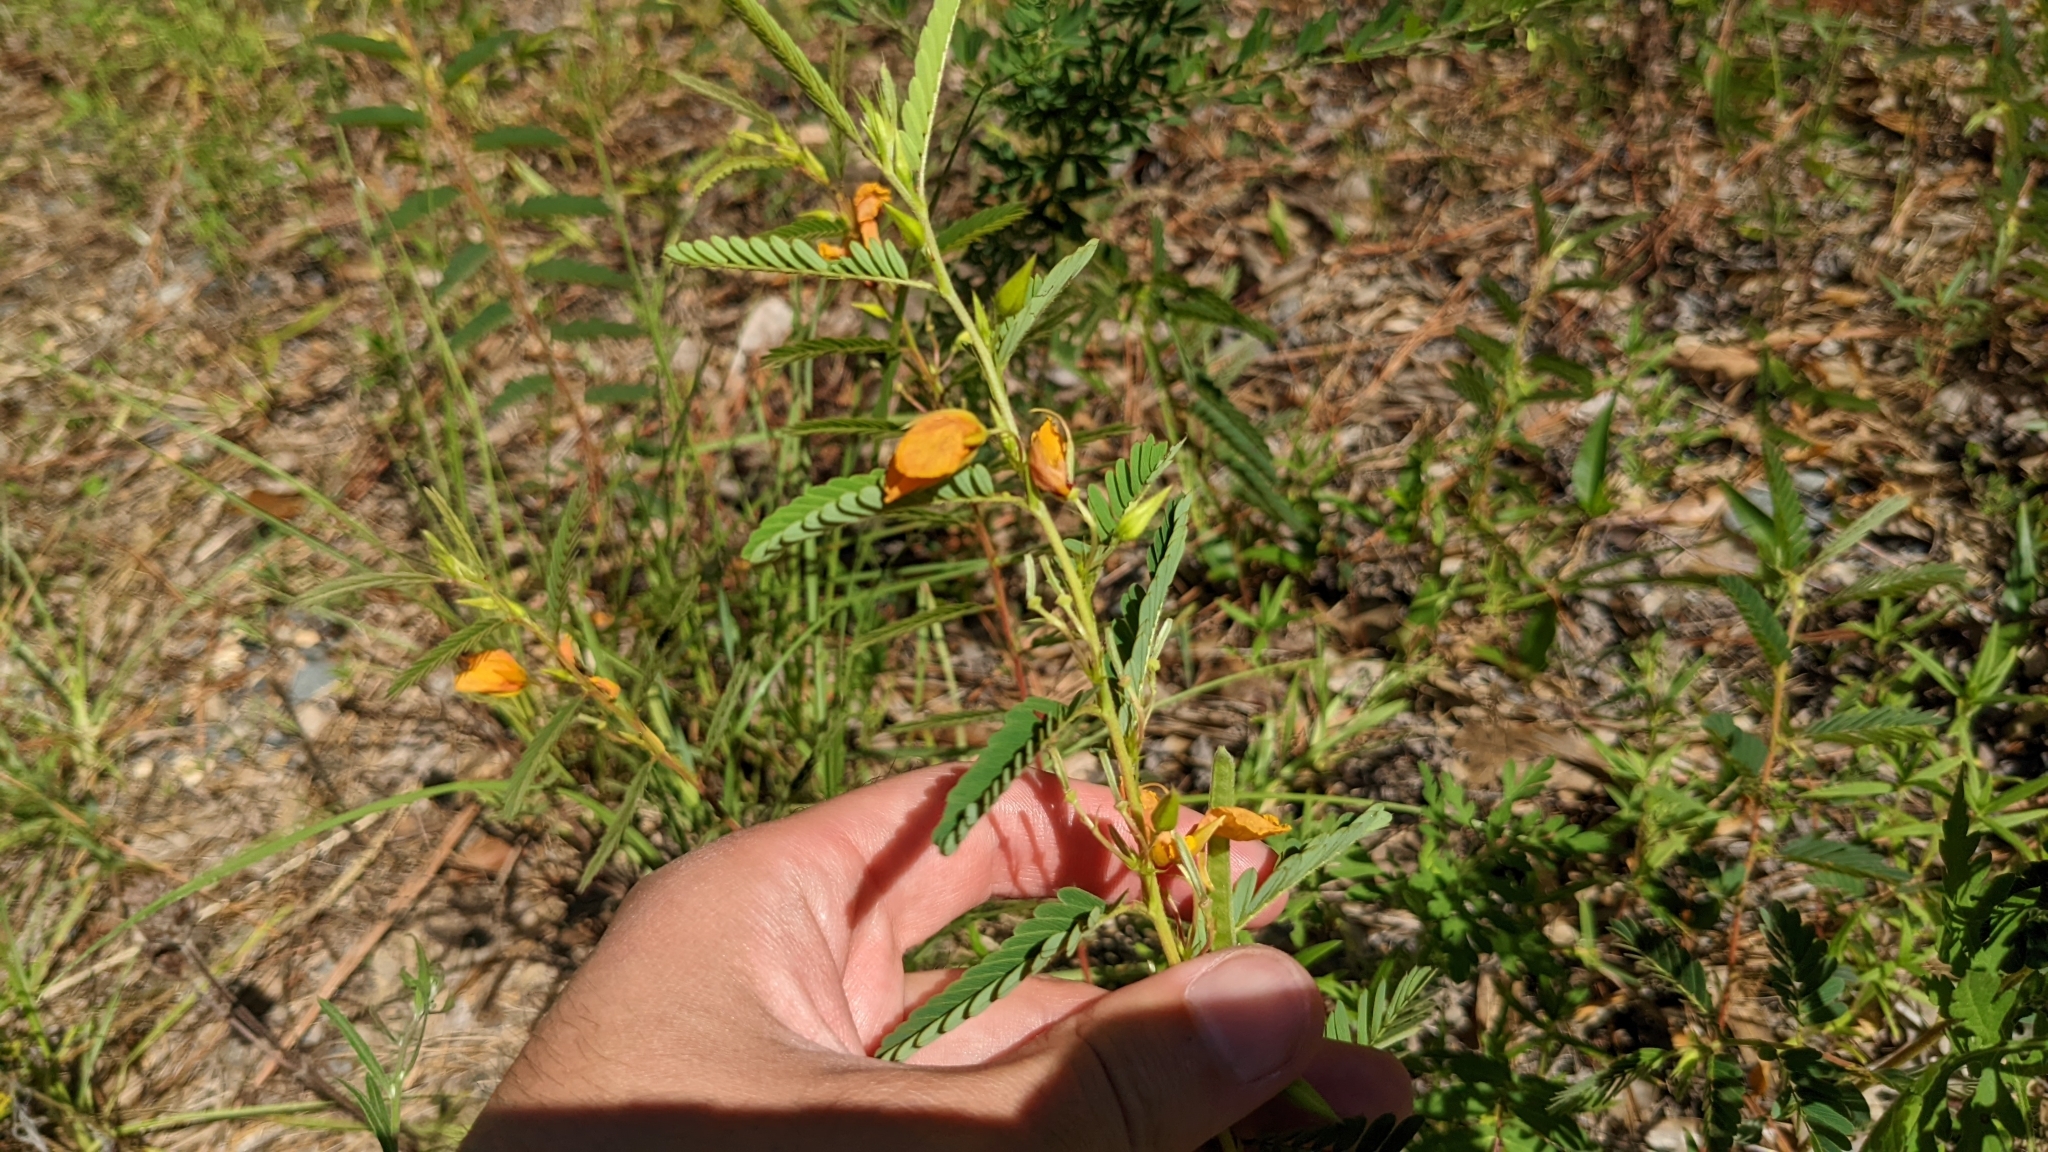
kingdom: Plantae
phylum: Tracheophyta
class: Magnoliopsida
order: Fabales
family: Fabaceae
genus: Chamaecrista
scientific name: Chamaecrista fasciculata
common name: Golden cassia
